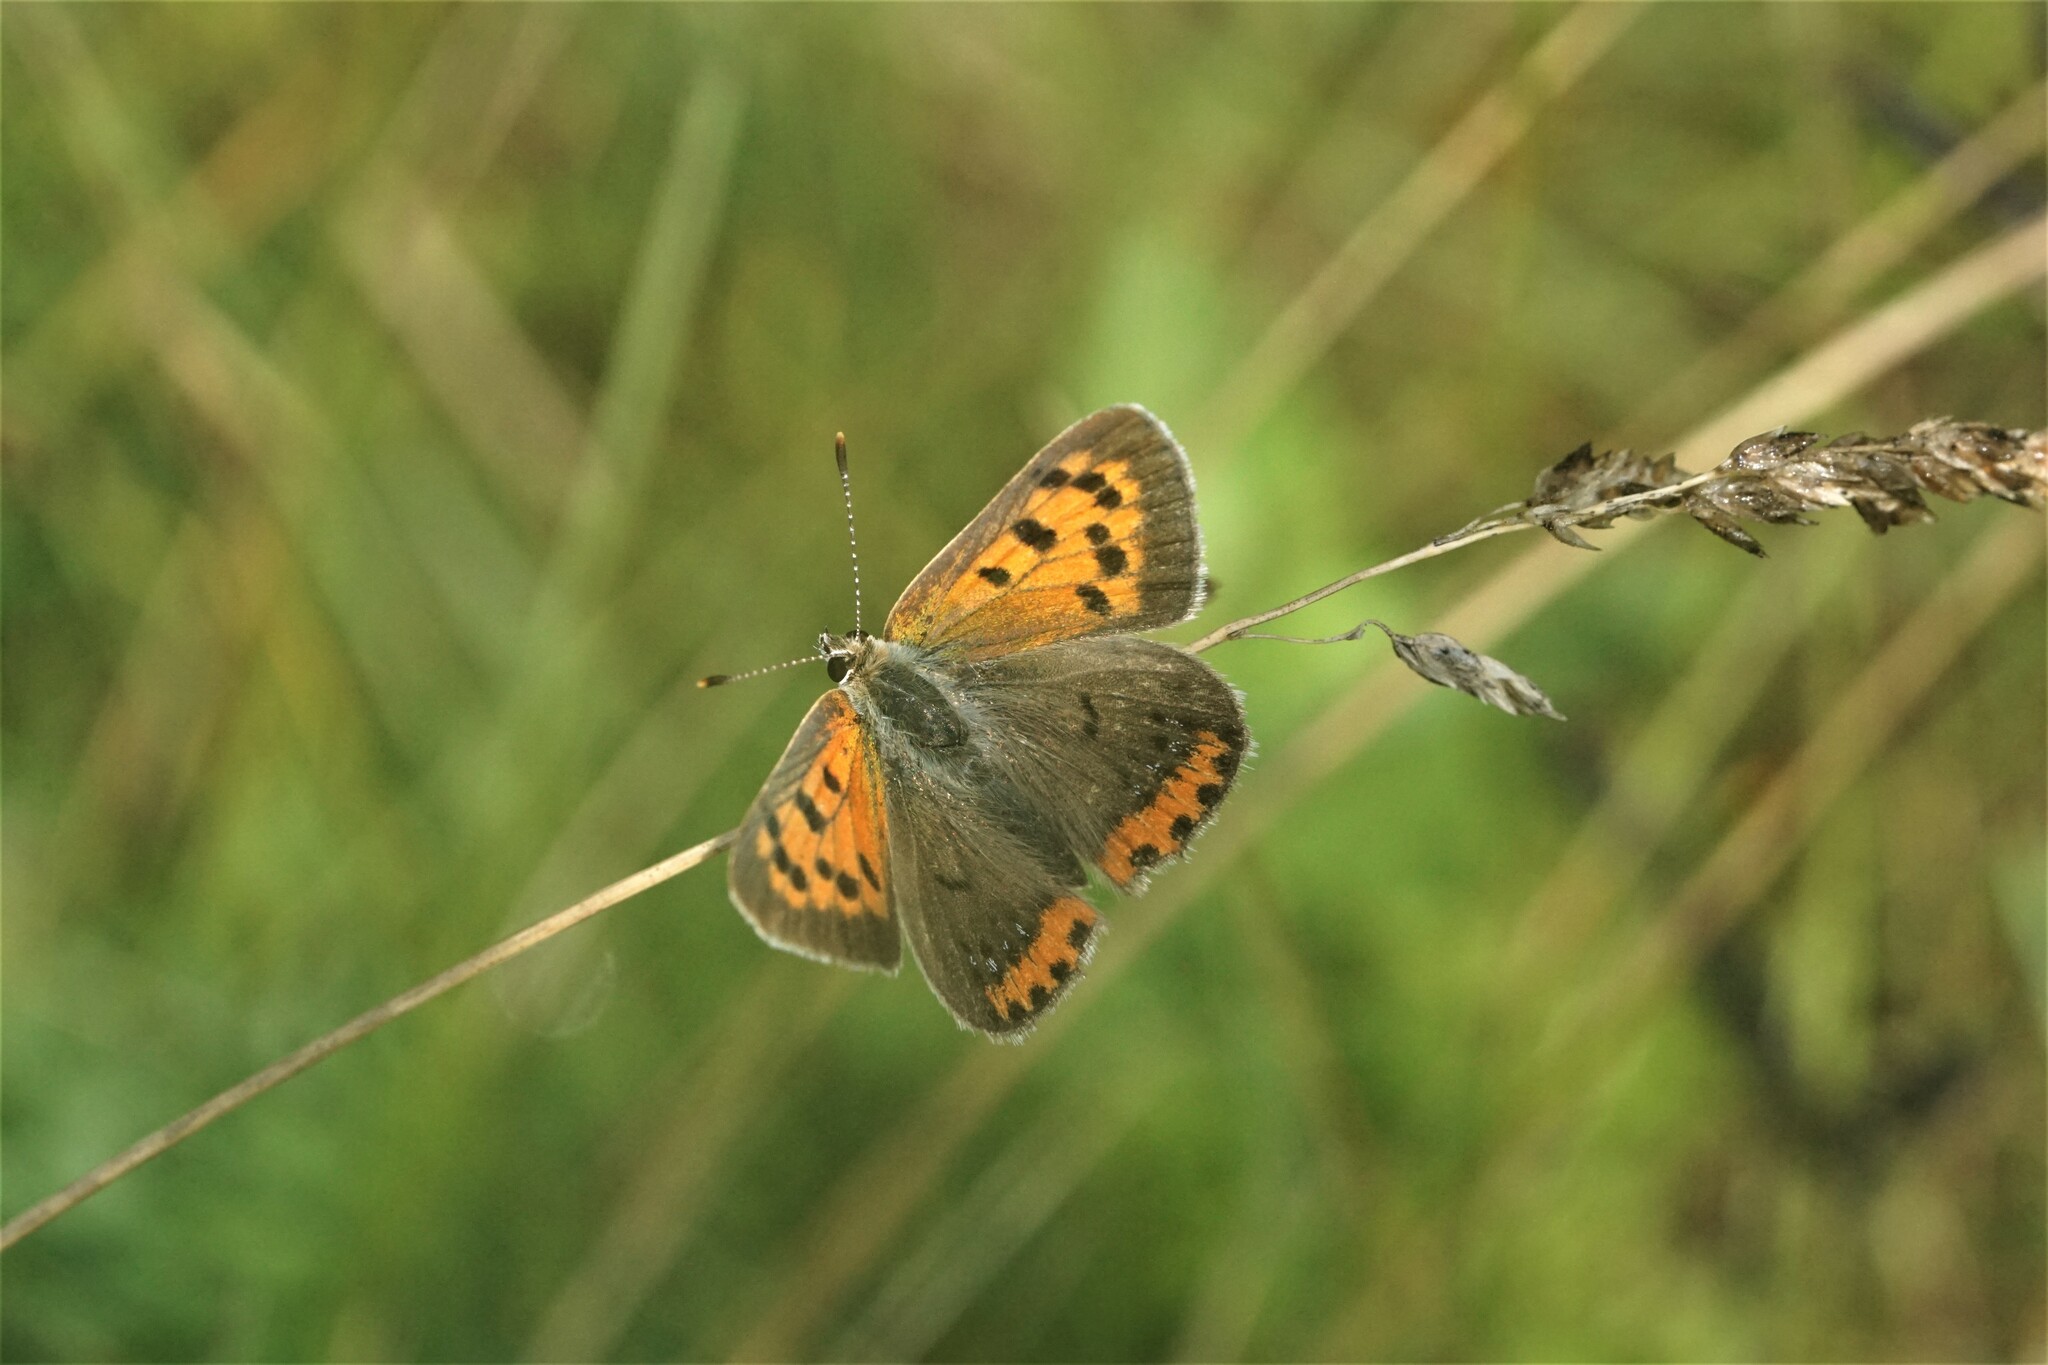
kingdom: Animalia
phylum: Arthropoda
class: Insecta
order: Lepidoptera
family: Lycaenidae
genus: Lycaena
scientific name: Lycaena hypophlaeas
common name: American copper
